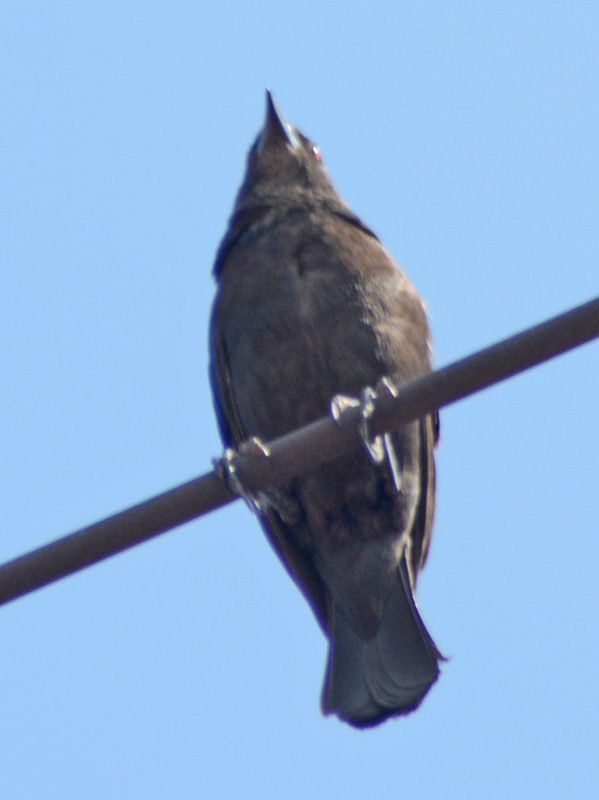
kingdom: Animalia
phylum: Chordata
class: Aves
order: Passeriformes
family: Icteridae
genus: Molothrus
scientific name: Molothrus aeneus
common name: Bronzed cowbird
